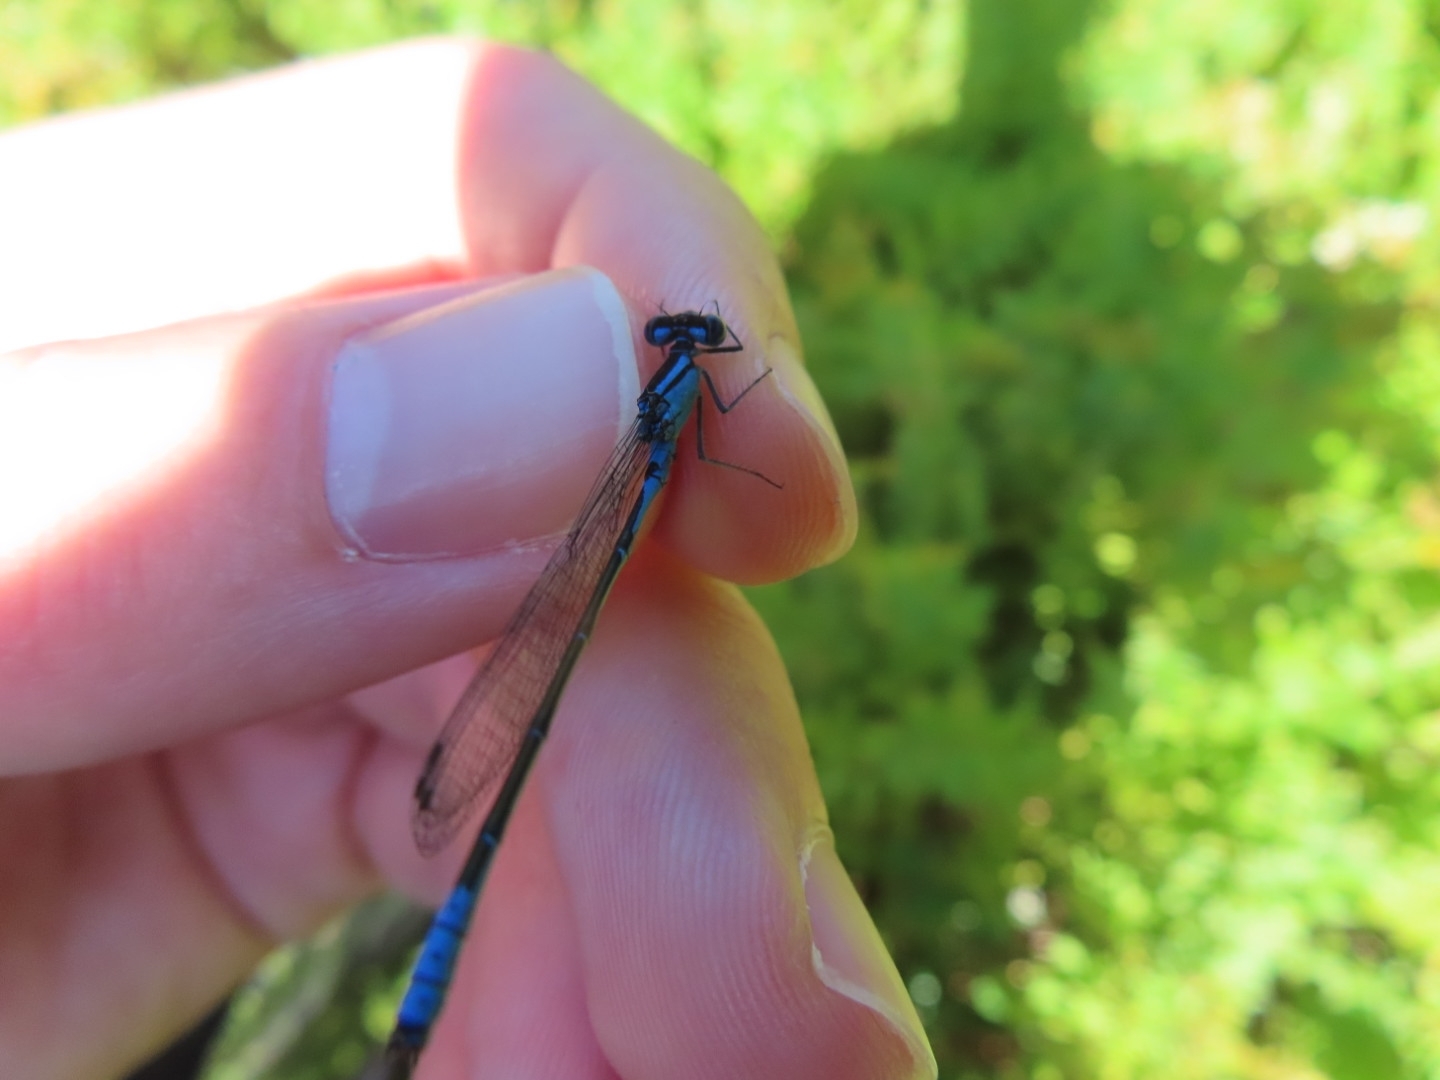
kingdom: Animalia
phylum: Arthropoda
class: Insecta
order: Odonata
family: Coenagrionidae
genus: Enallagma
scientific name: Enallagma aspersum
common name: Azure bluet
